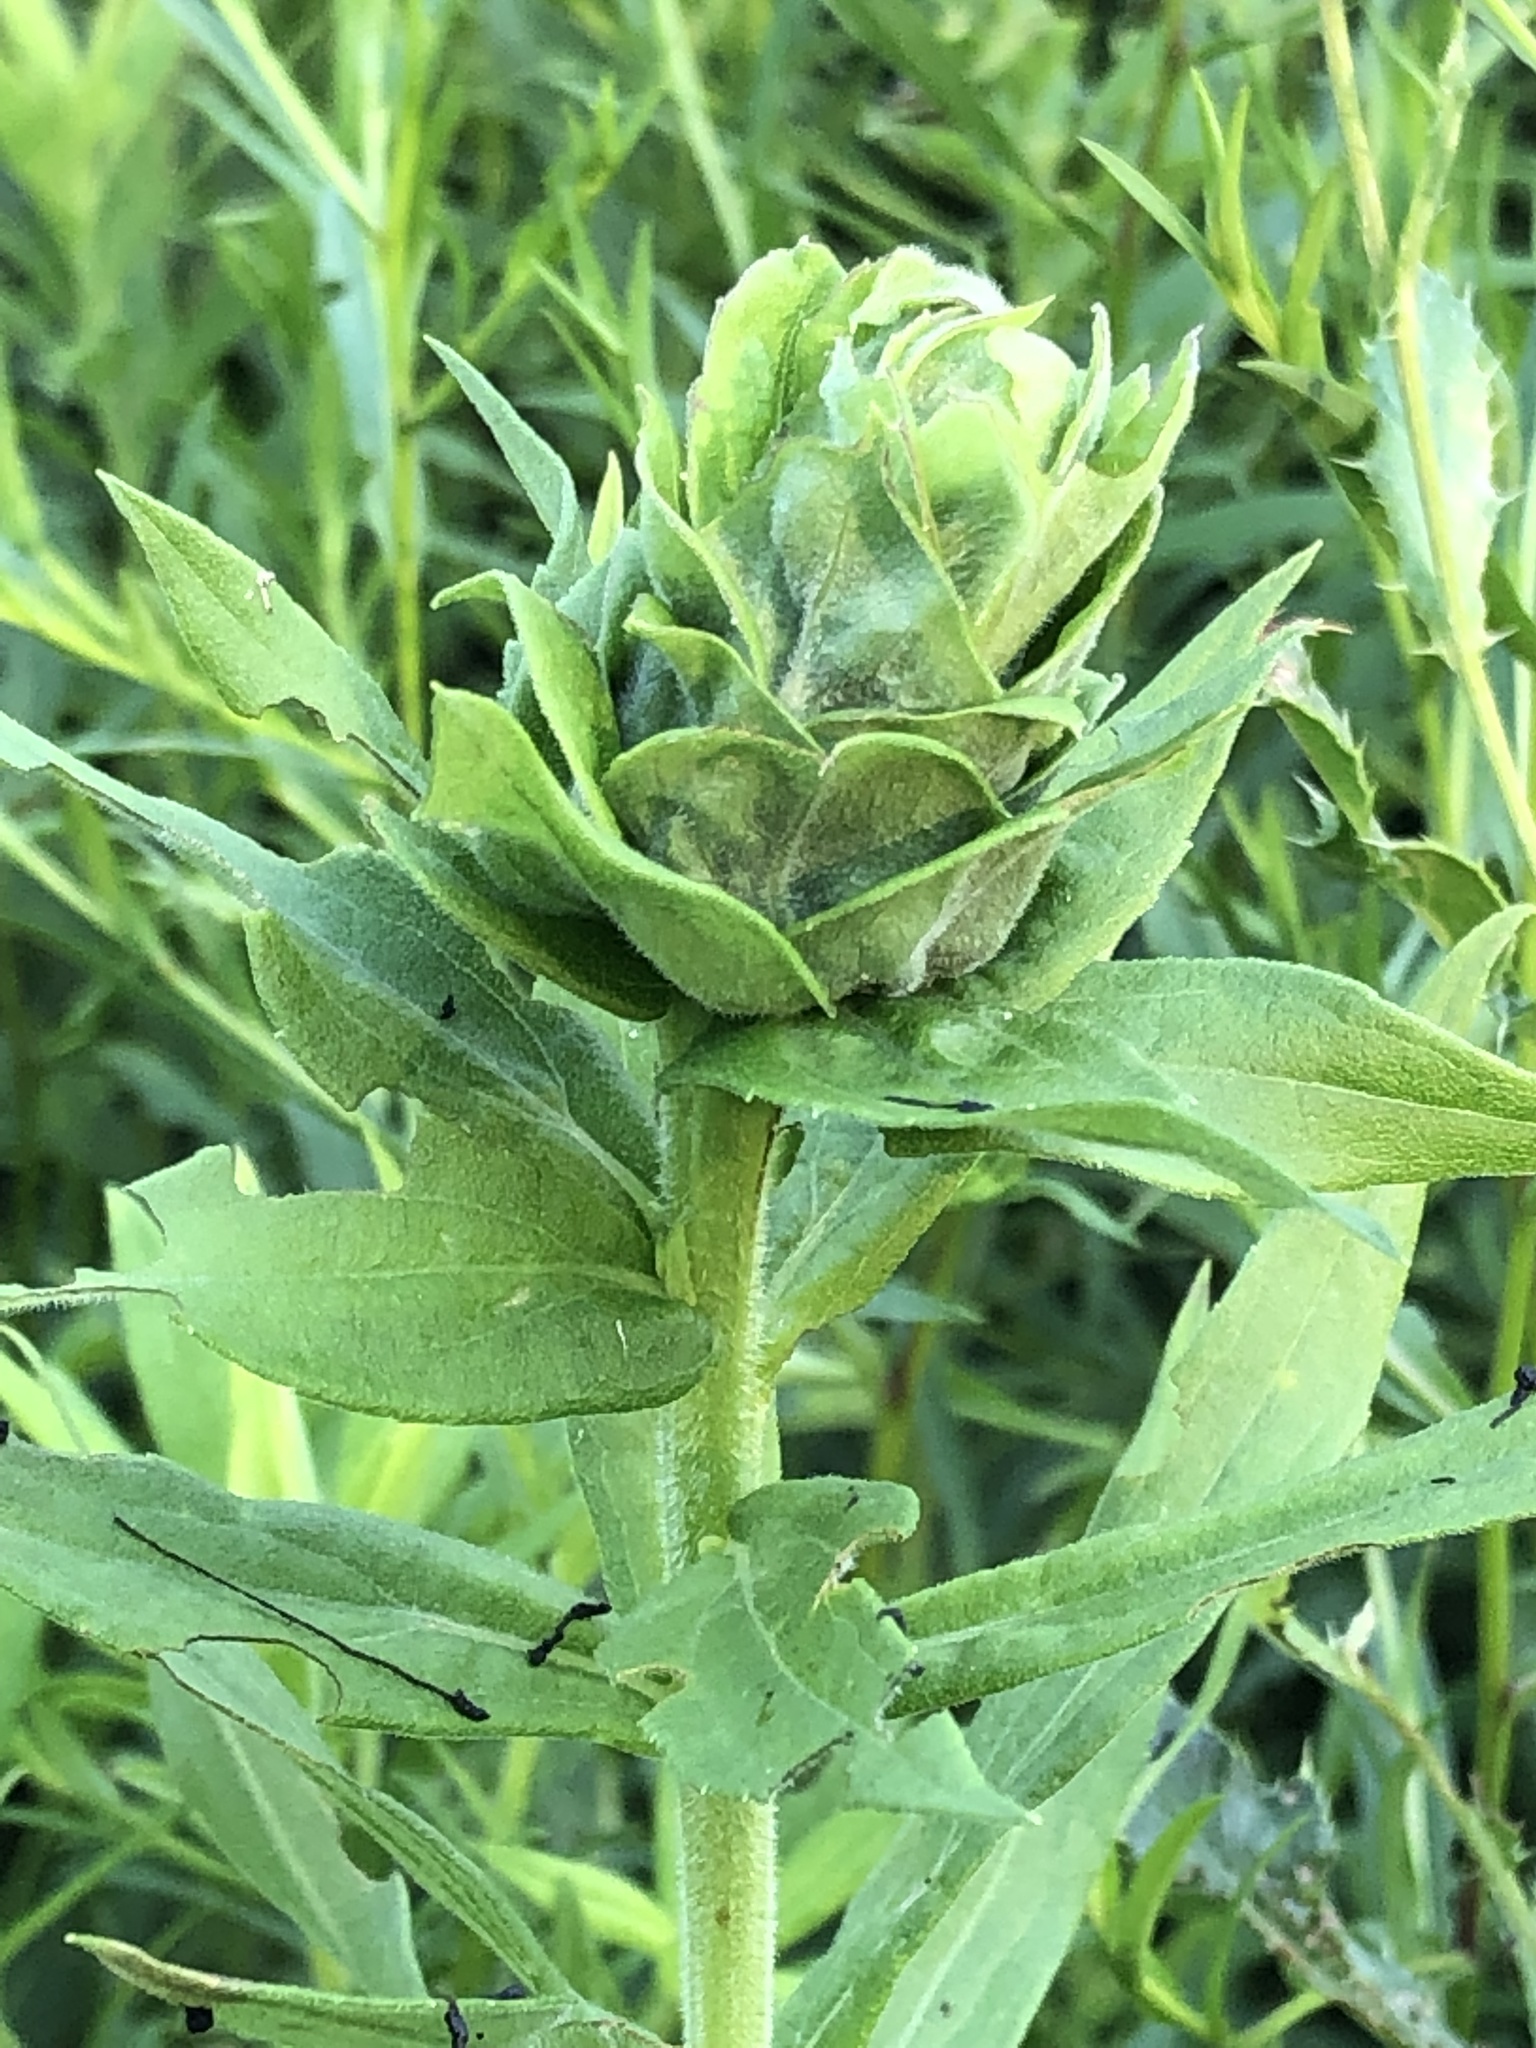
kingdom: Animalia
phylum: Arthropoda
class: Insecta
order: Diptera
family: Cecidomyiidae
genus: Rhopalomyia
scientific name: Rhopalomyia solidaginis
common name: Goldenrod bunch gall midge
